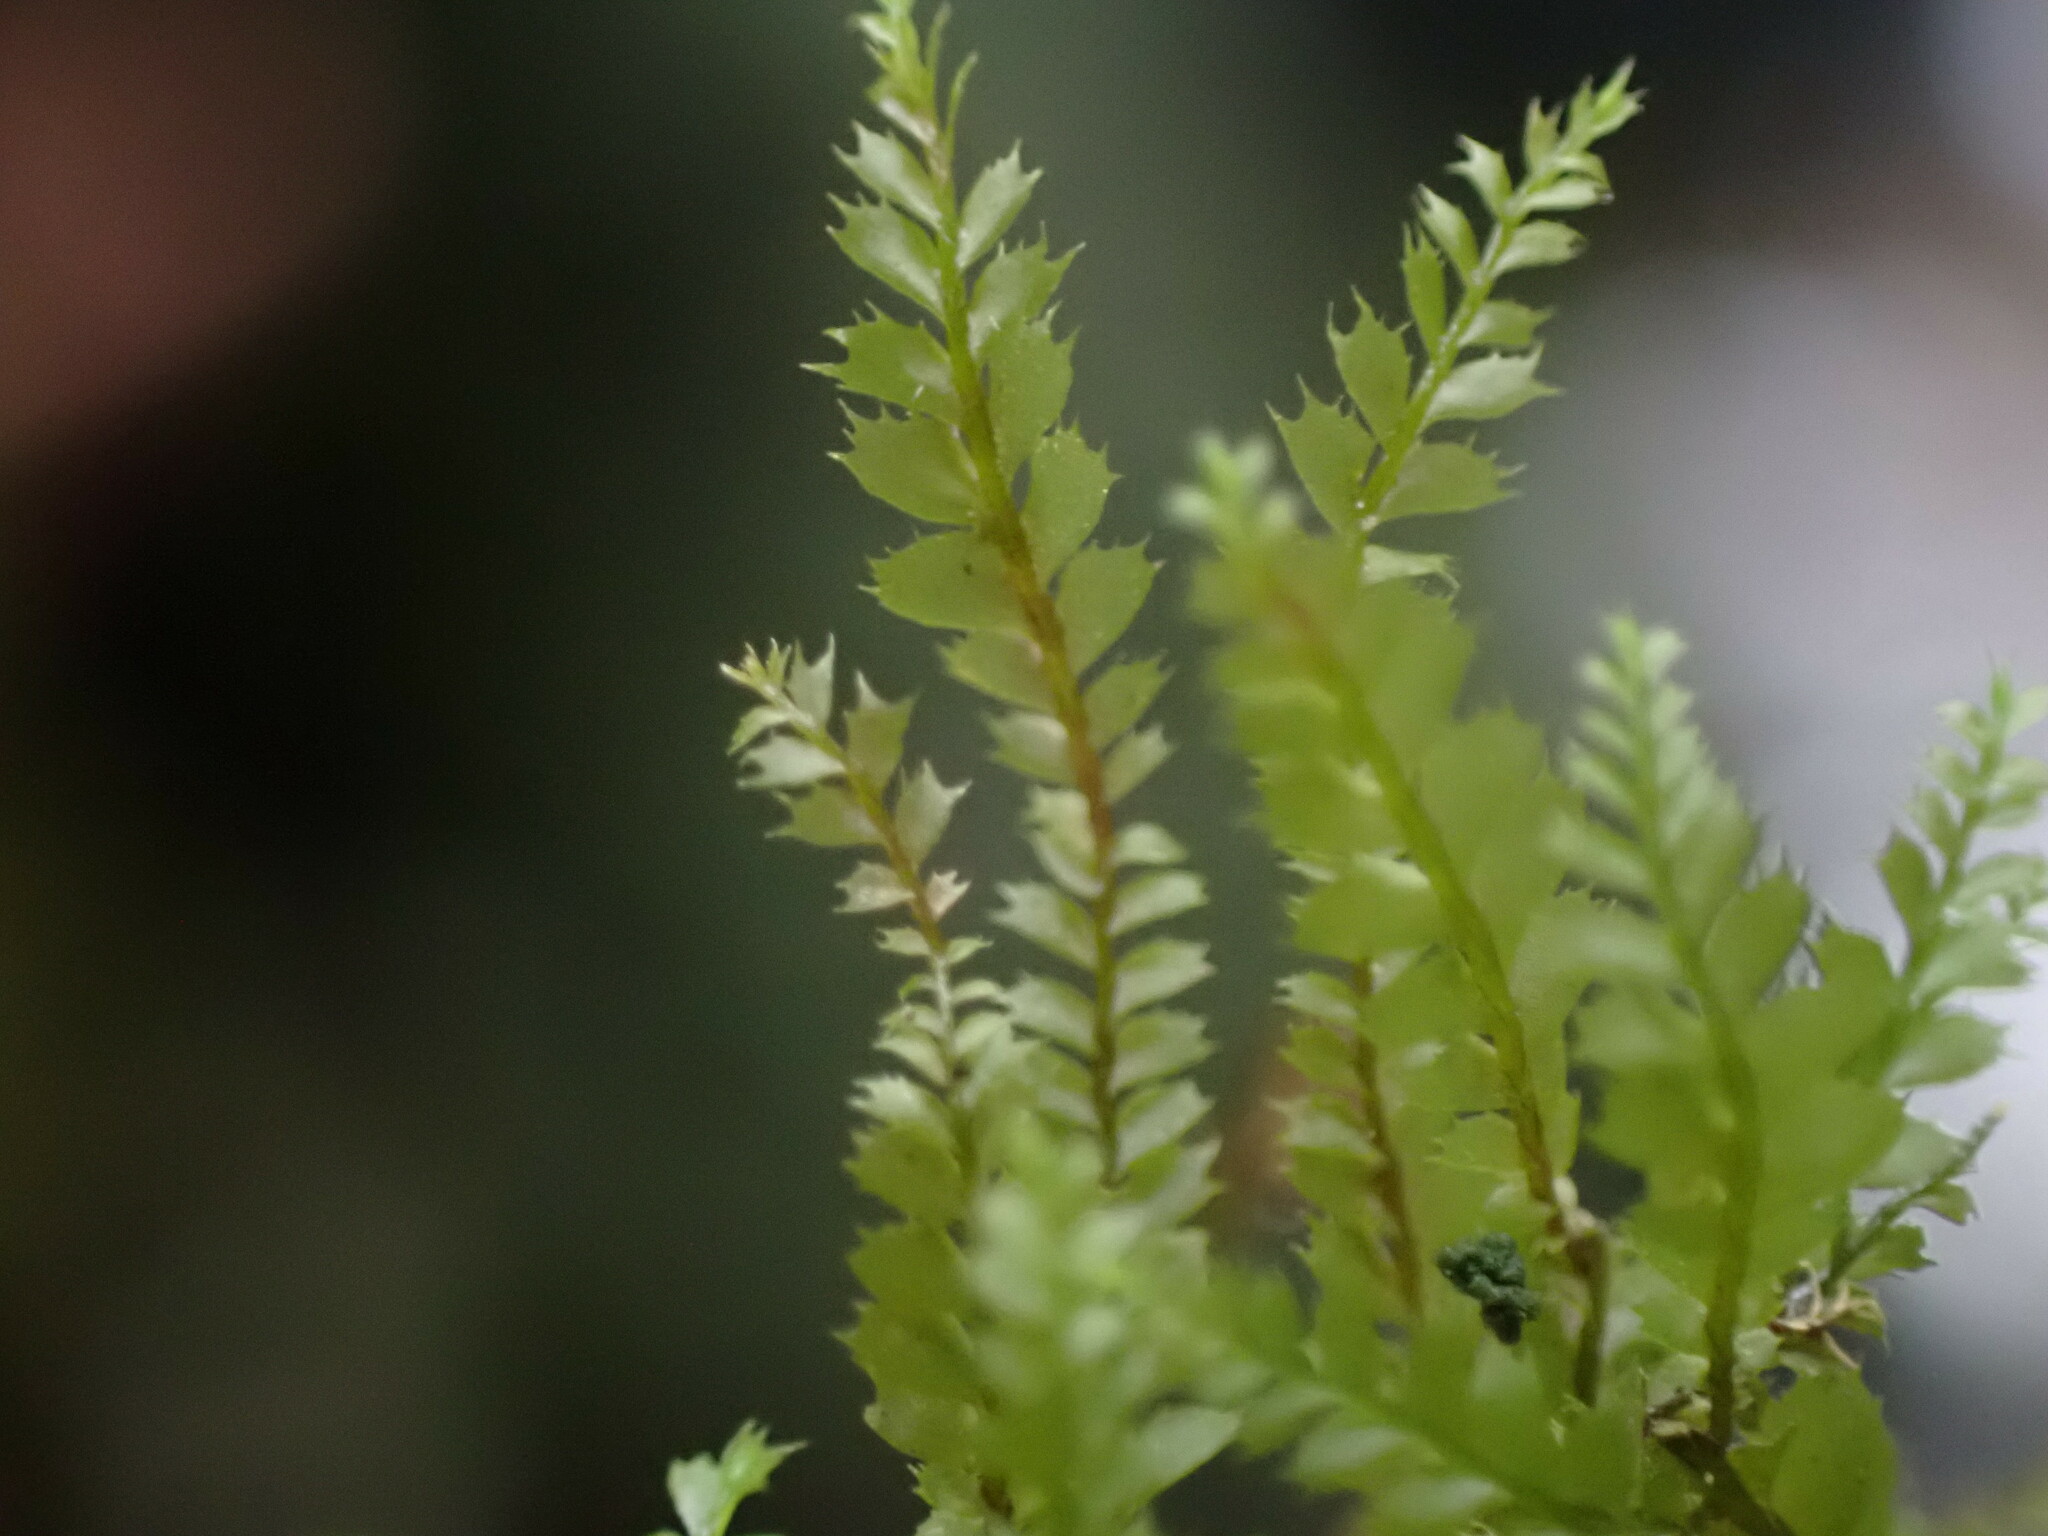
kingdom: Plantae
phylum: Marchantiophyta
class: Jungermanniopsida
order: Jungermanniales
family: Plagiochilaceae
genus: Plagiochila
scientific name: Plagiochila gracilis
